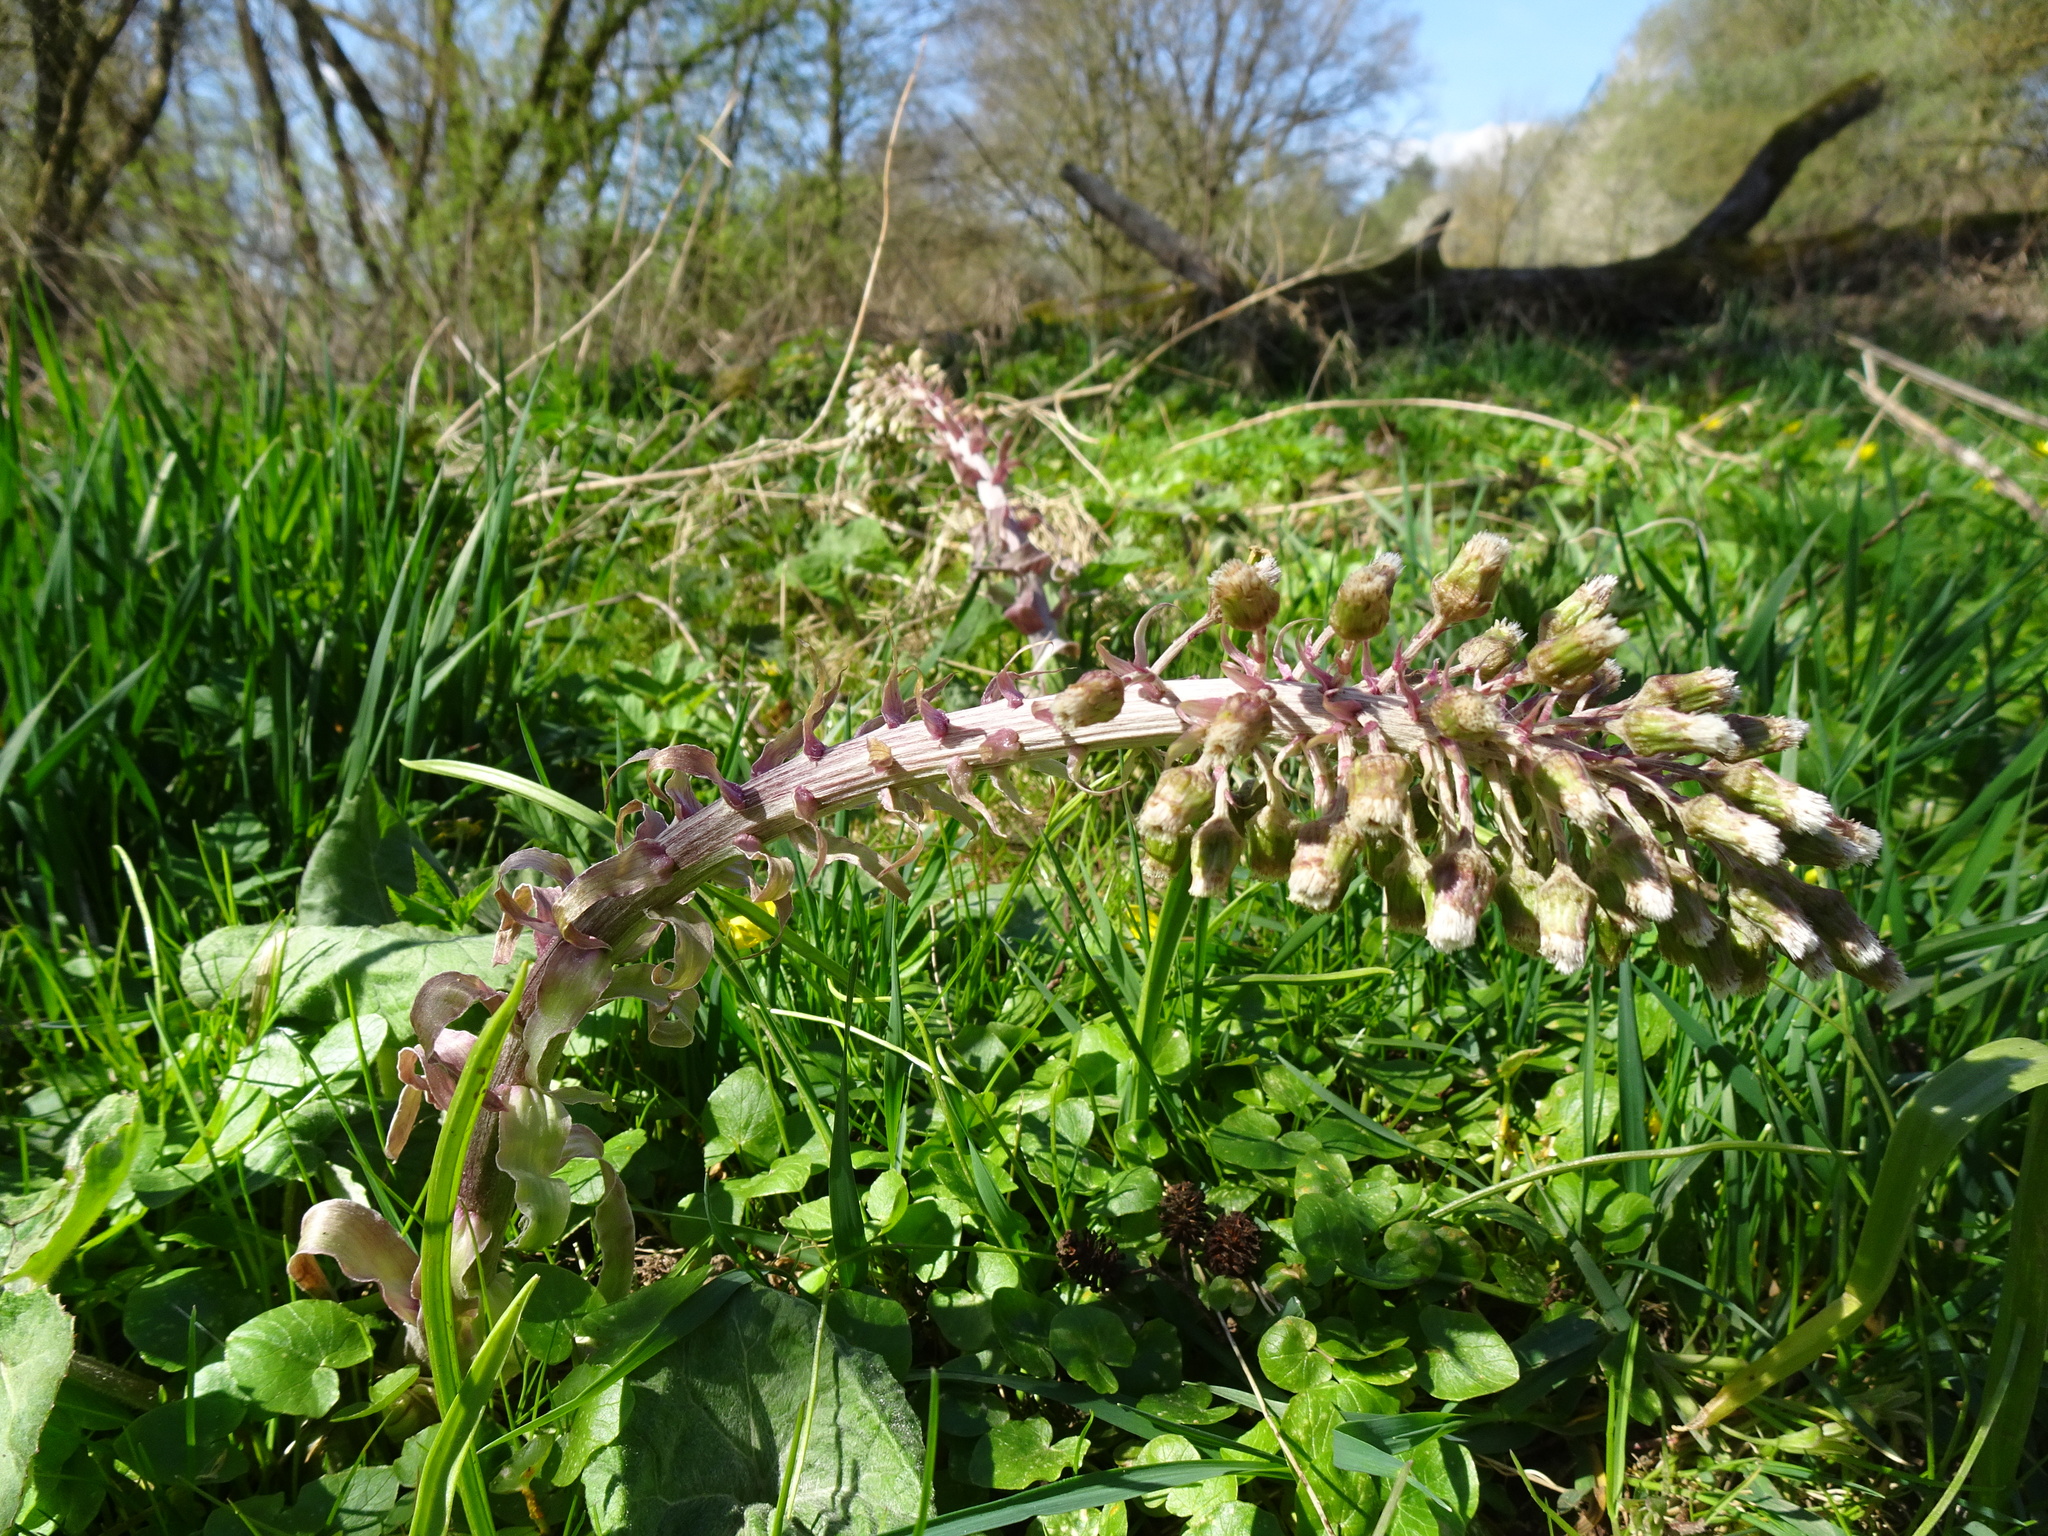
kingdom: Plantae
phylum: Tracheophyta
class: Magnoliopsida
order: Asterales
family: Asteraceae
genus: Petasites
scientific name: Petasites hybridus
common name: Butterbur
